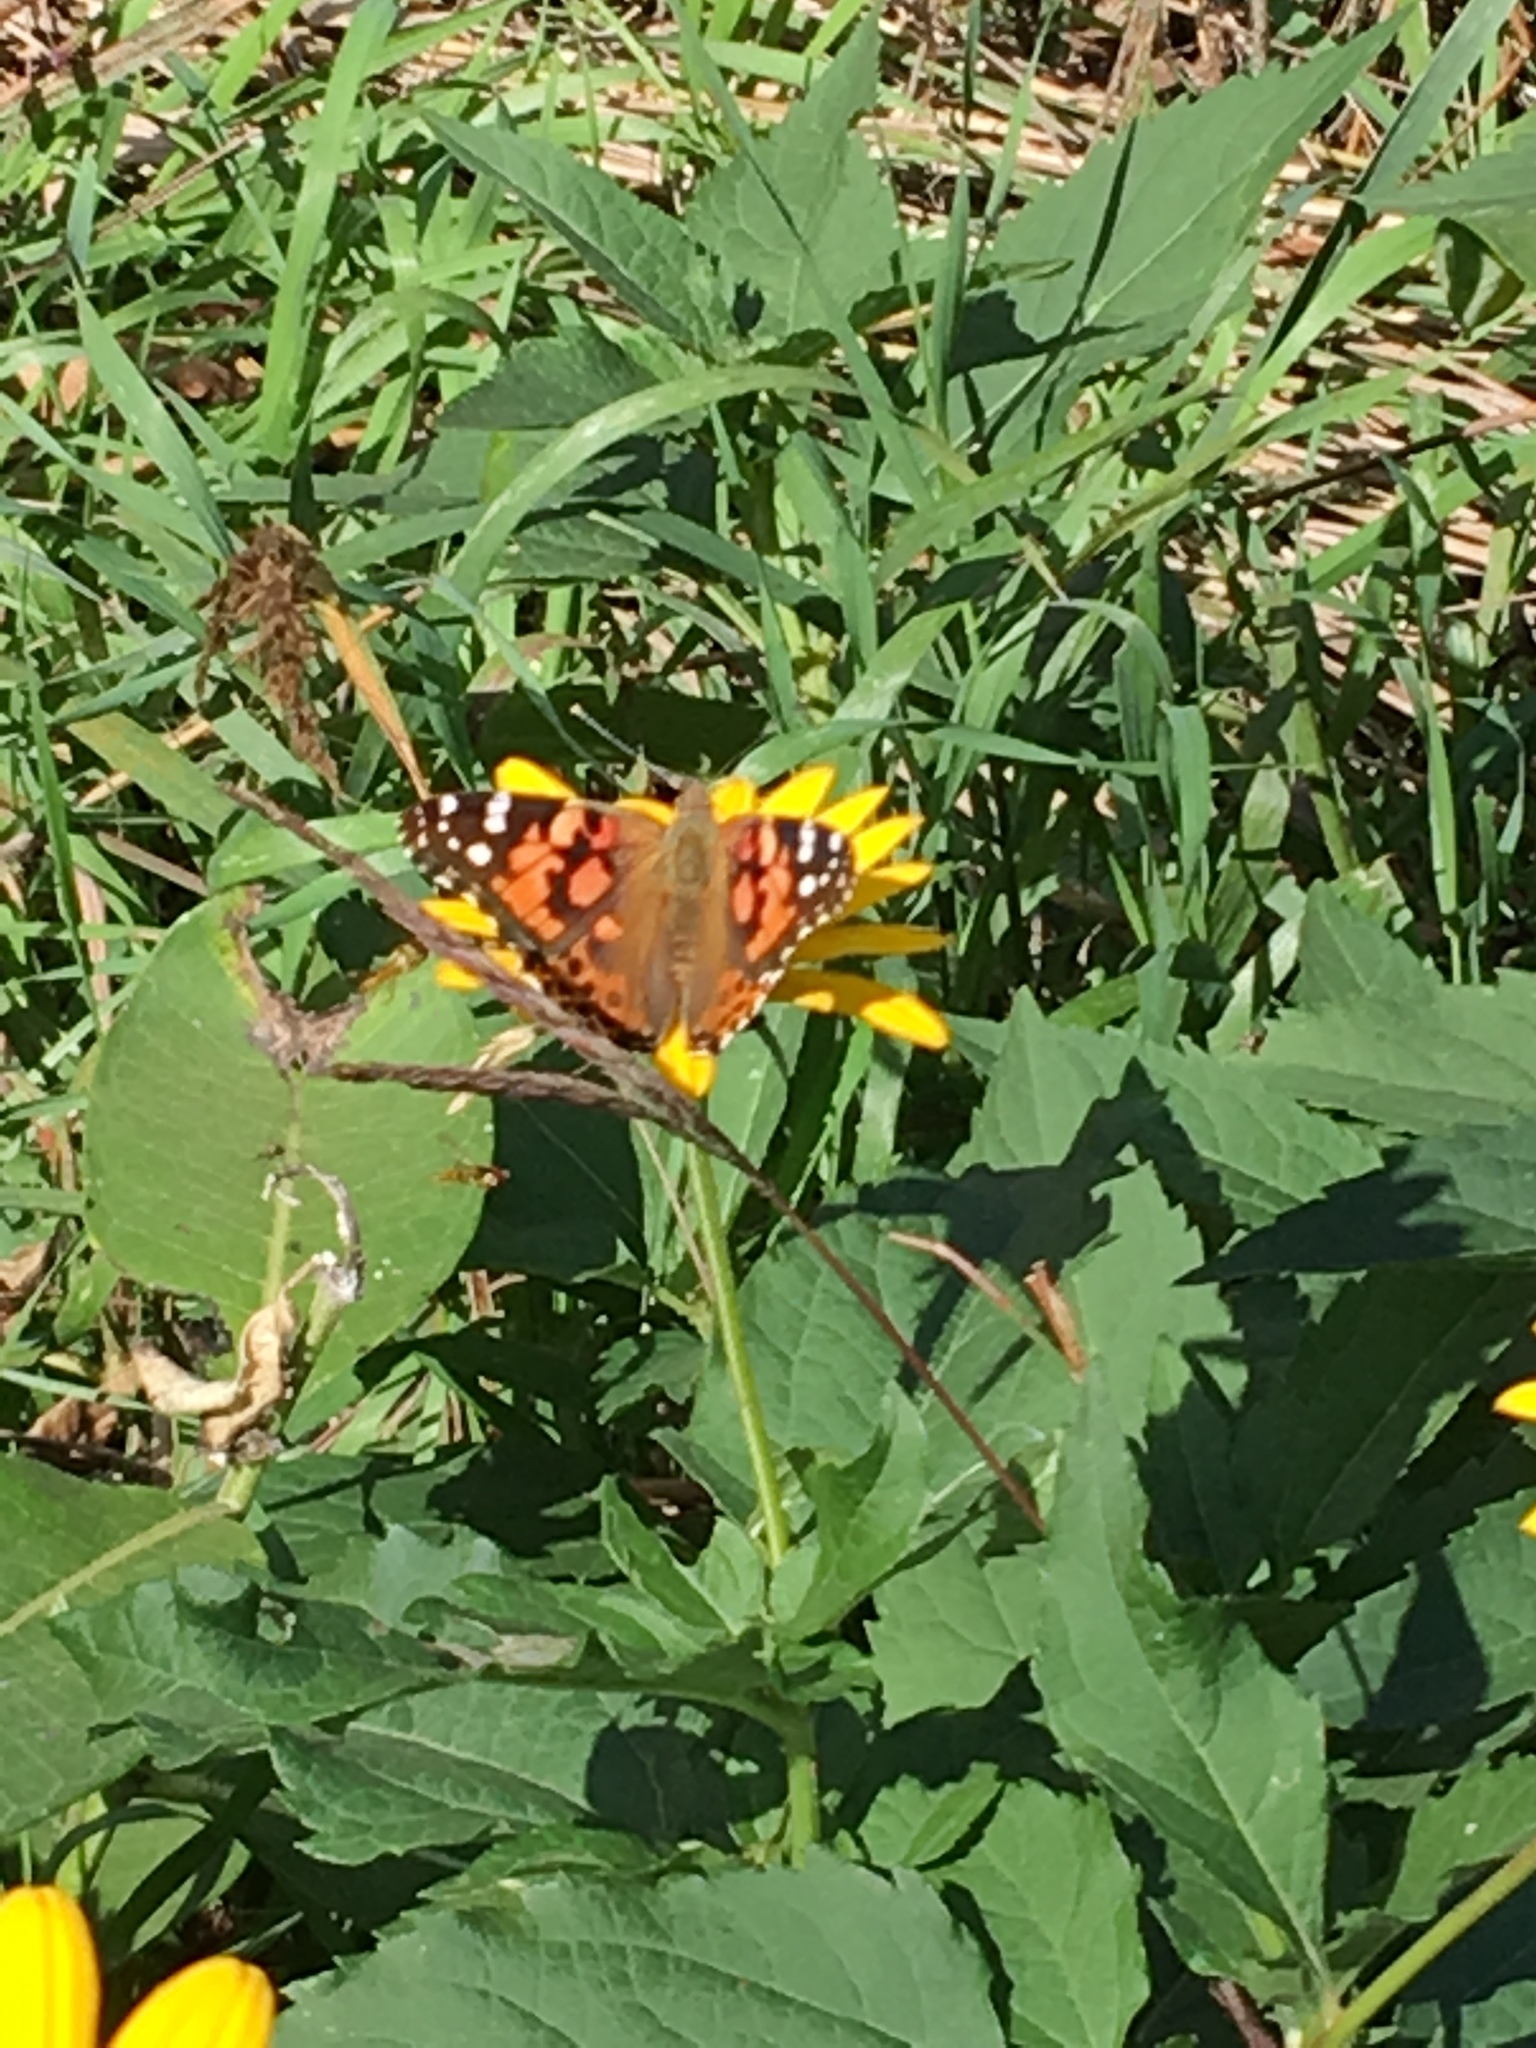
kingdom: Animalia
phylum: Arthropoda
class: Insecta
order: Lepidoptera
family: Nymphalidae
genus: Vanessa
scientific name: Vanessa cardui
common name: Painted lady
